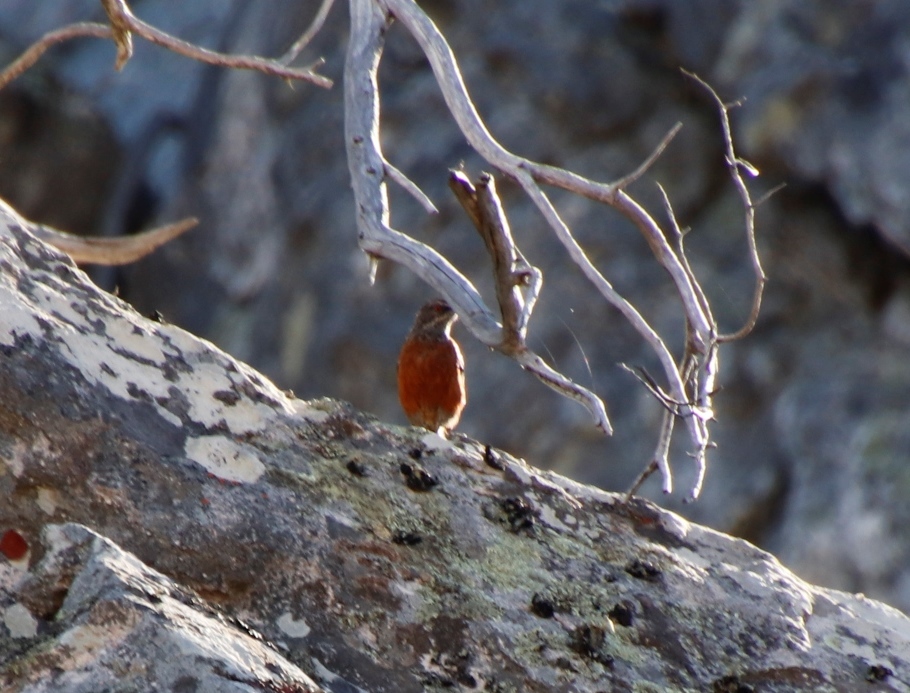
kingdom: Animalia
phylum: Chordata
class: Aves
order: Passeriformes
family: Chaetopidae
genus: Chaetops
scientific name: Chaetops frenatus
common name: Cape rockjumper
